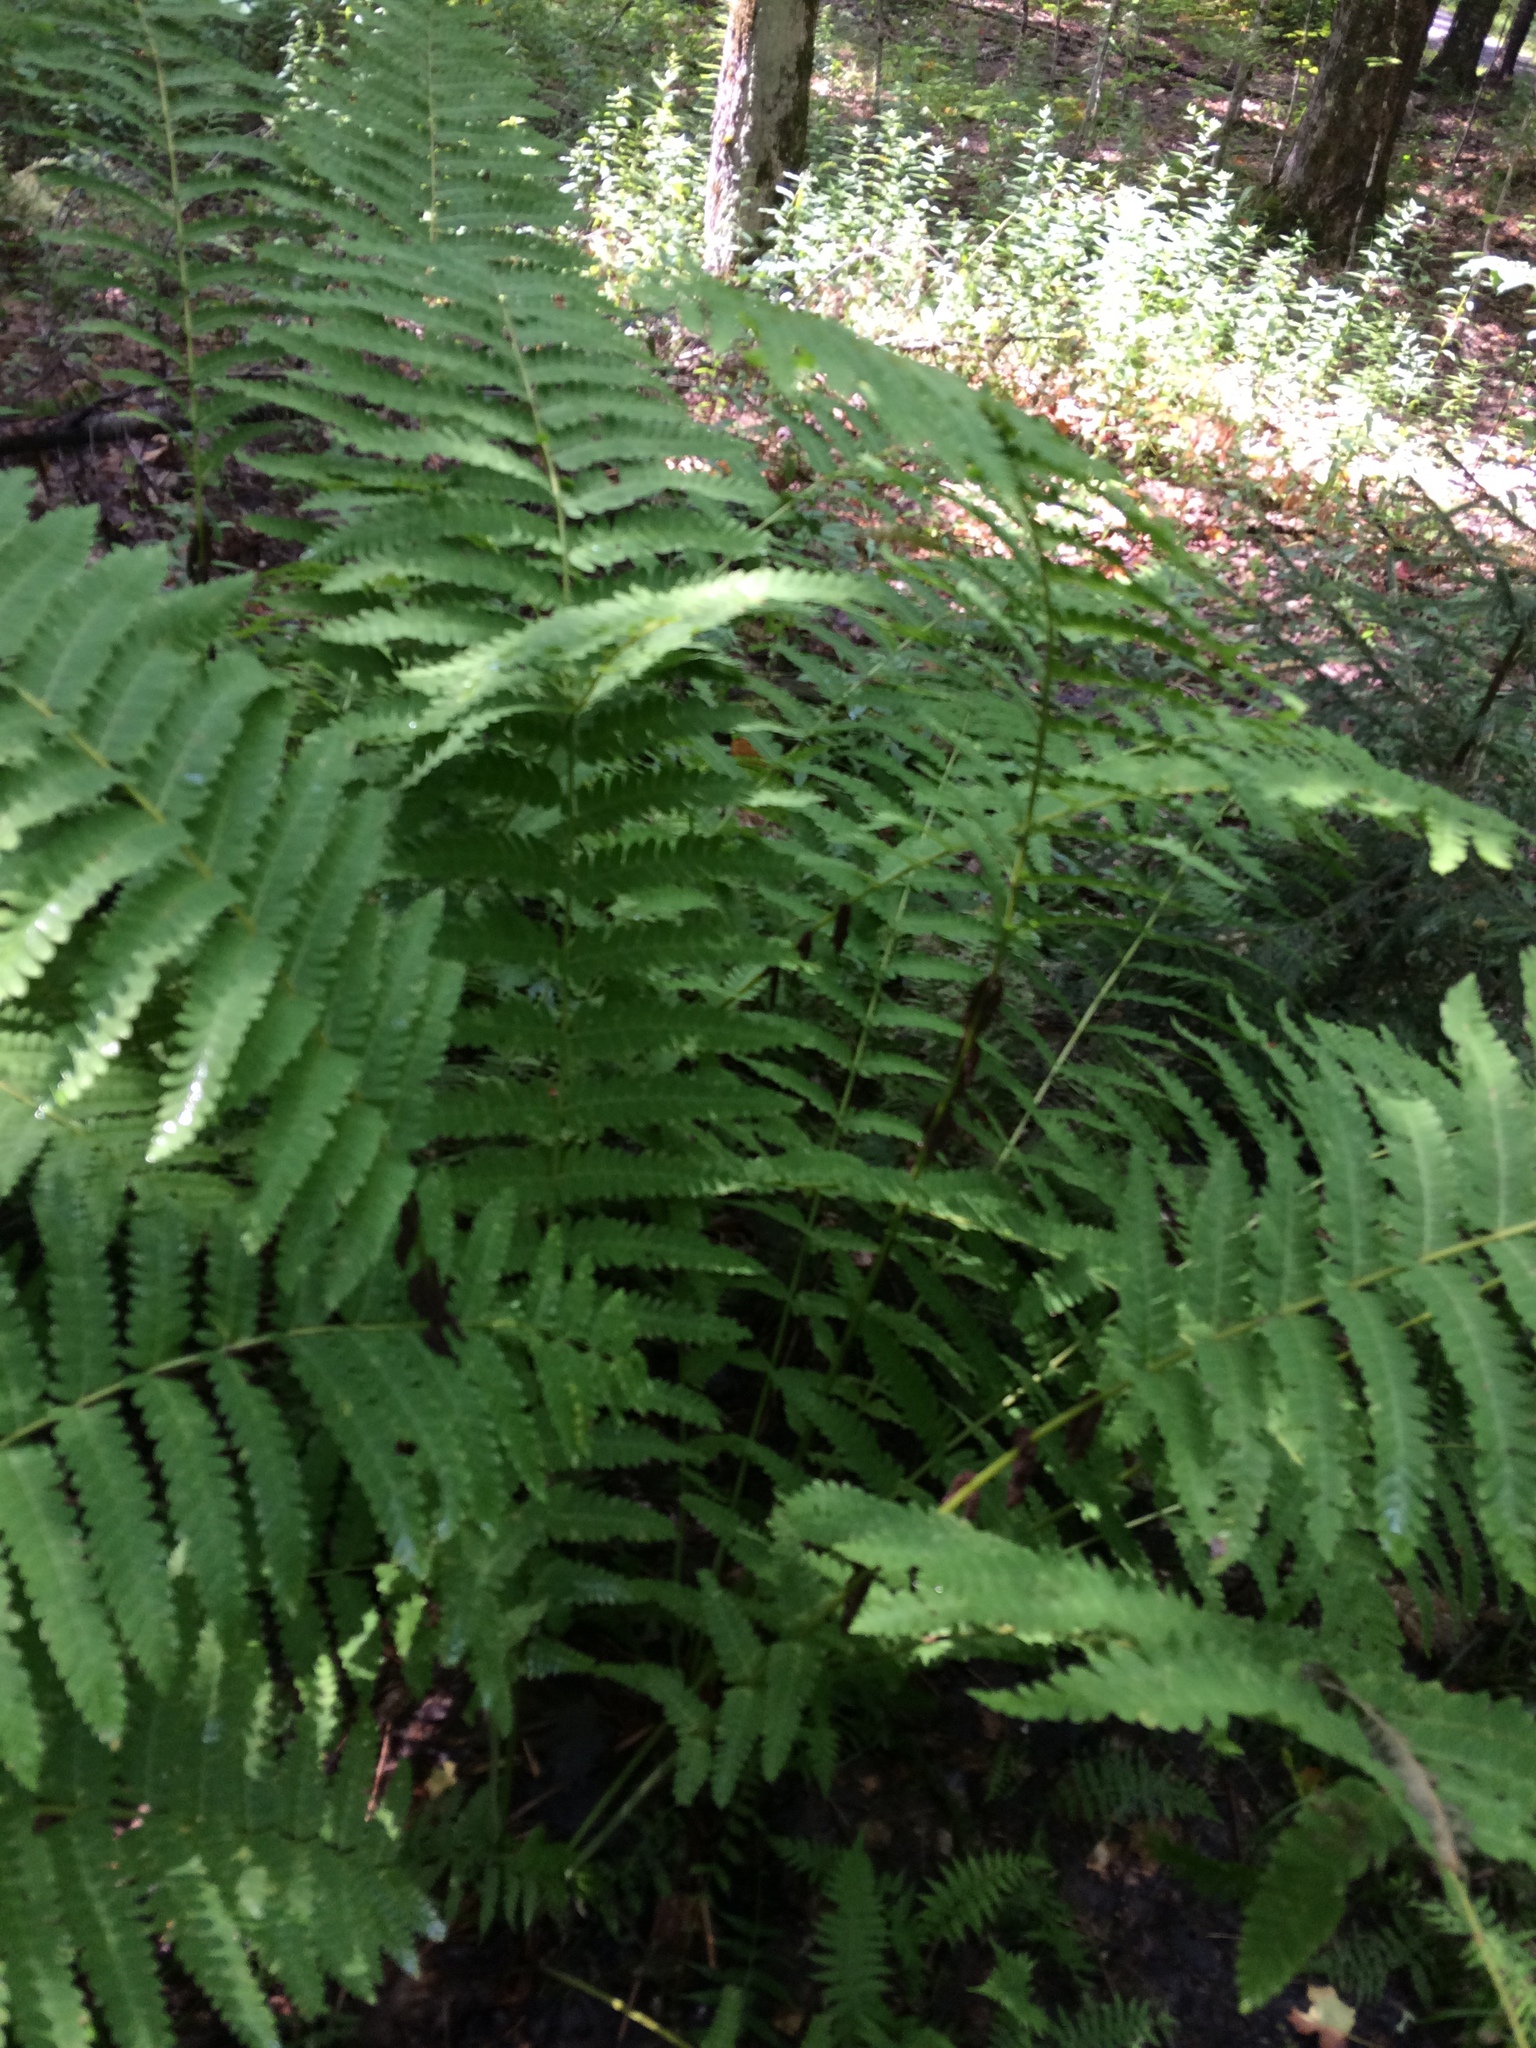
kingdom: Plantae
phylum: Tracheophyta
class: Polypodiopsida
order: Osmundales
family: Osmundaceae
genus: Claytosmunda
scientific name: Claytosmunda claytoniana
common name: Clayton's fern
